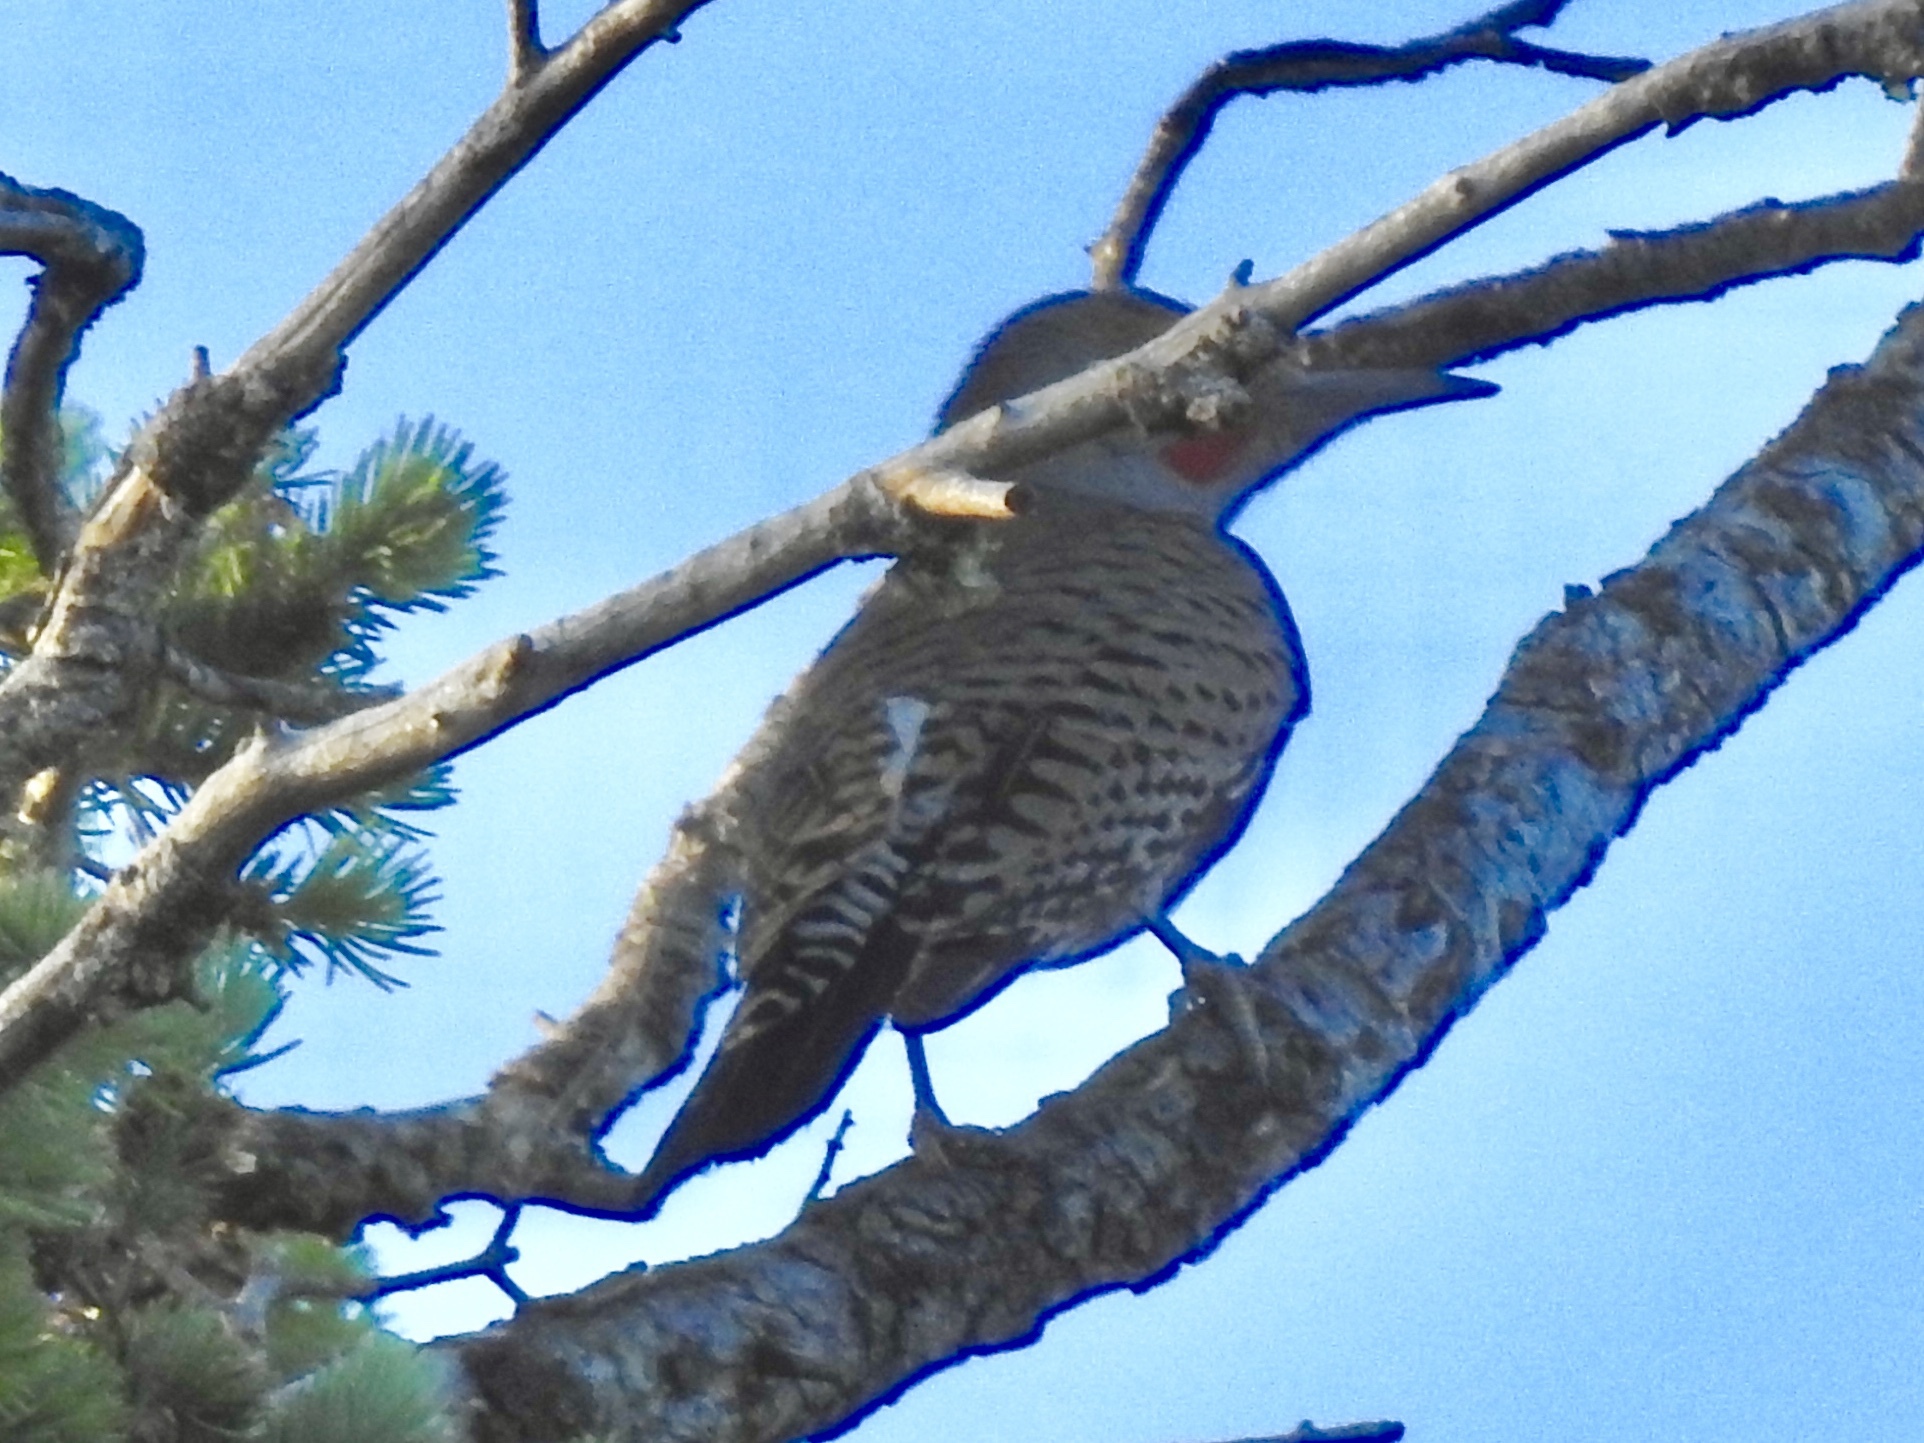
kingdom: Animalia
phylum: Chordata
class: Aves
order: Piciformes
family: Picidae
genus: Colaptes
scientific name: Colaptes auratus
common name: Northern flicker
